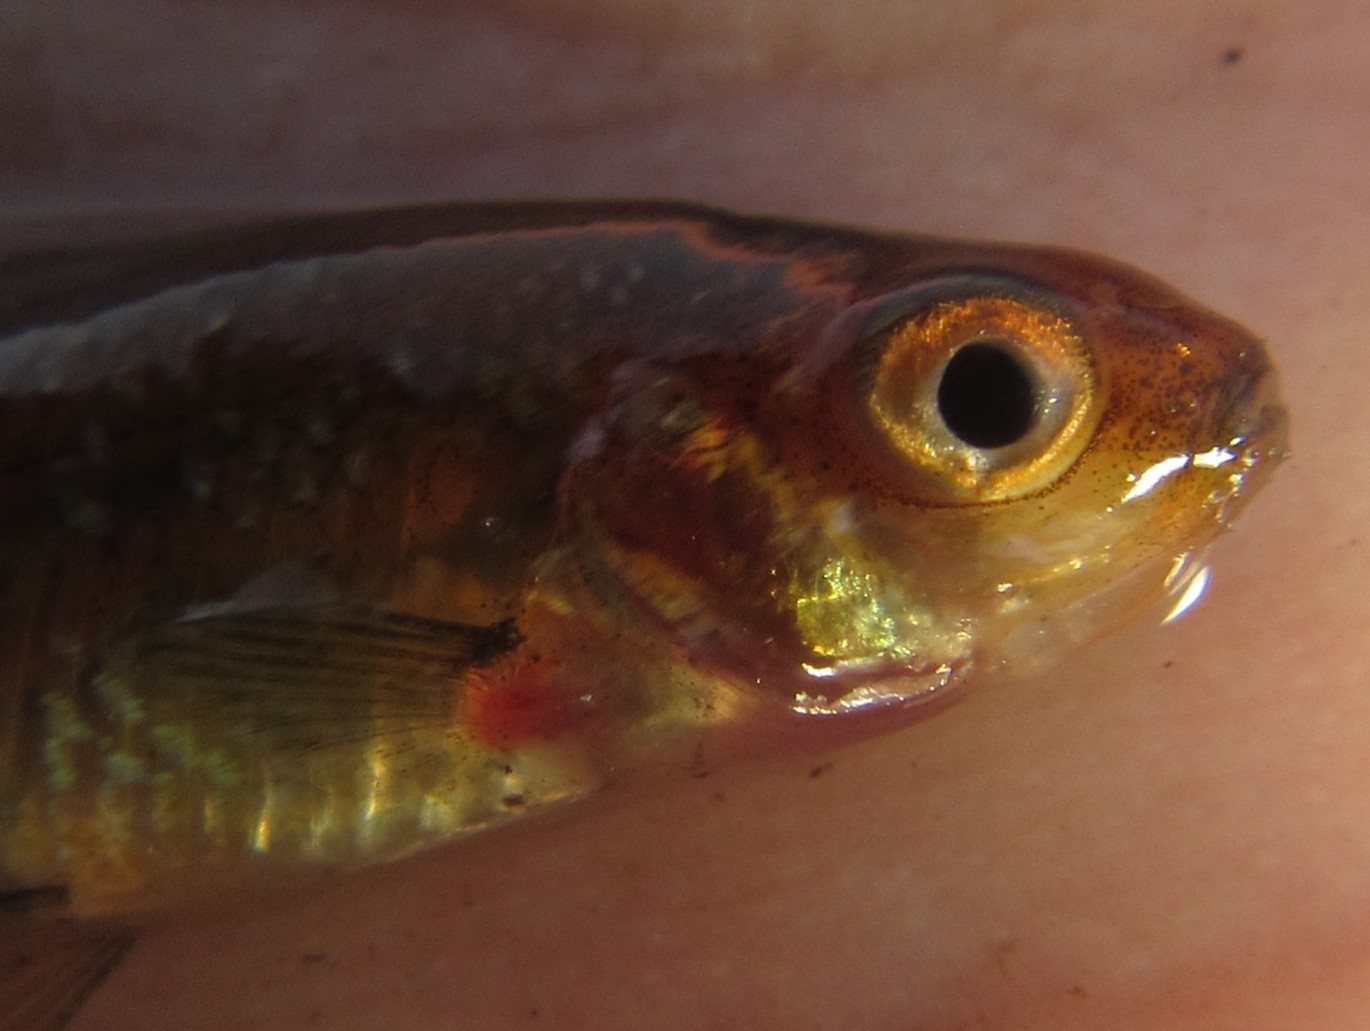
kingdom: Animalia
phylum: Chordata
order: Cypriniformes
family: Cyprinidae
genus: Enteromius
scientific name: Enteromius haasianus
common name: Sickle-fin barb
